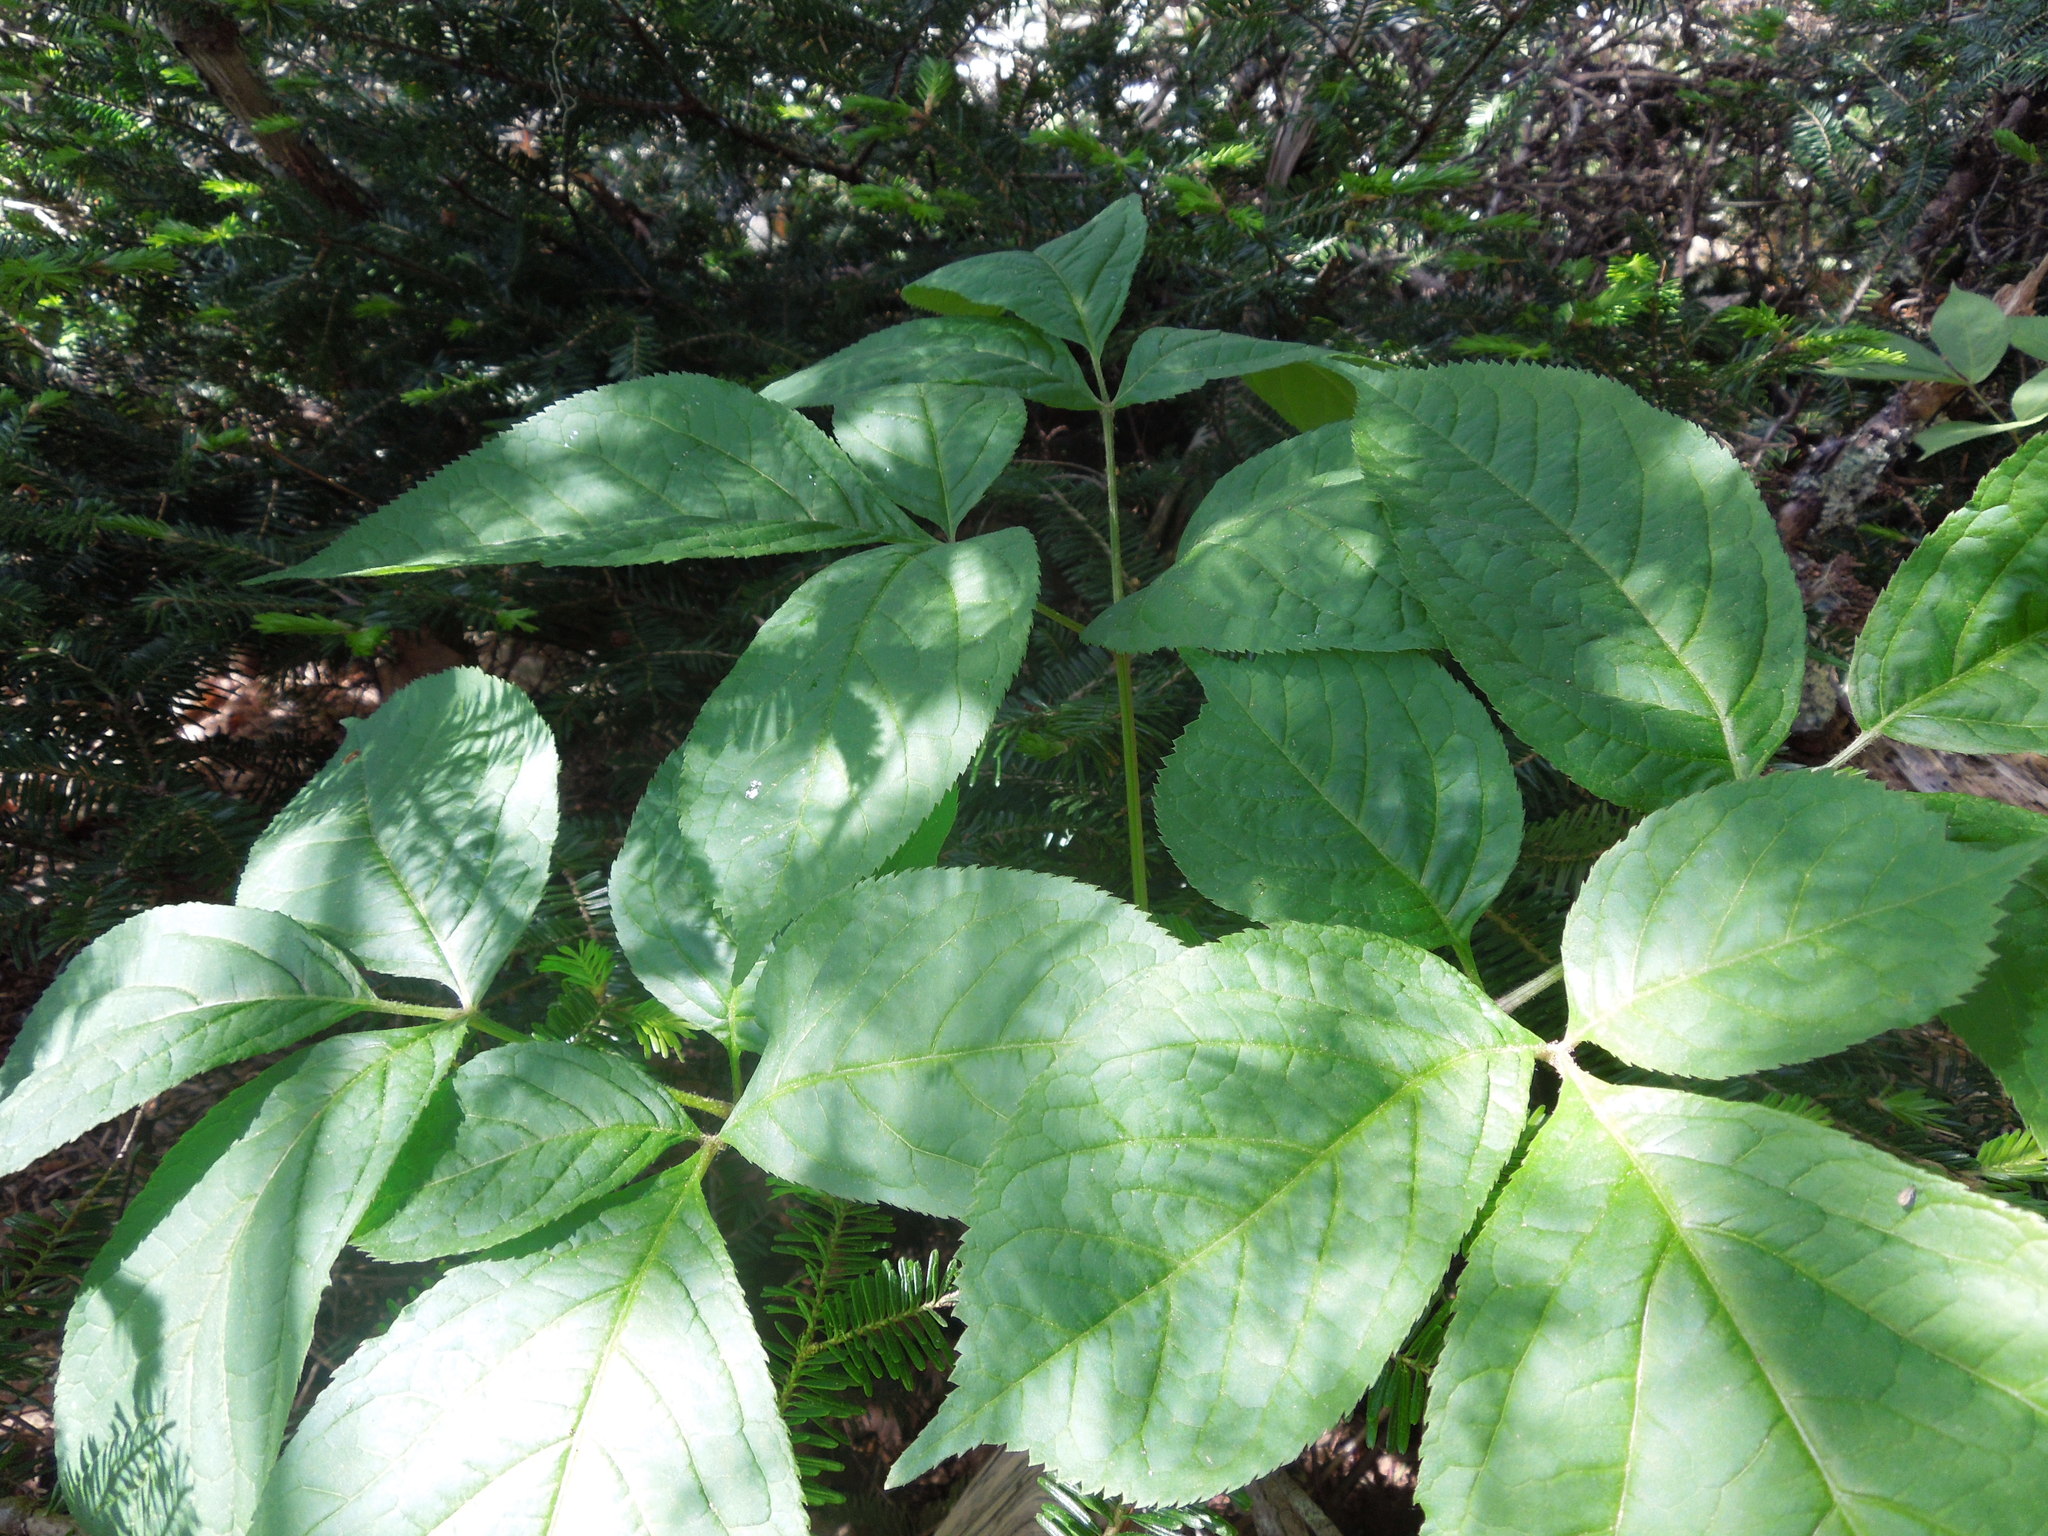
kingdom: Plantae
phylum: Tracheophyta
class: Magnoliopsida
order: Apiales
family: Araliaceae
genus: Aralia
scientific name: Aralia nudicaulis
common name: Wild sarsaparilla
